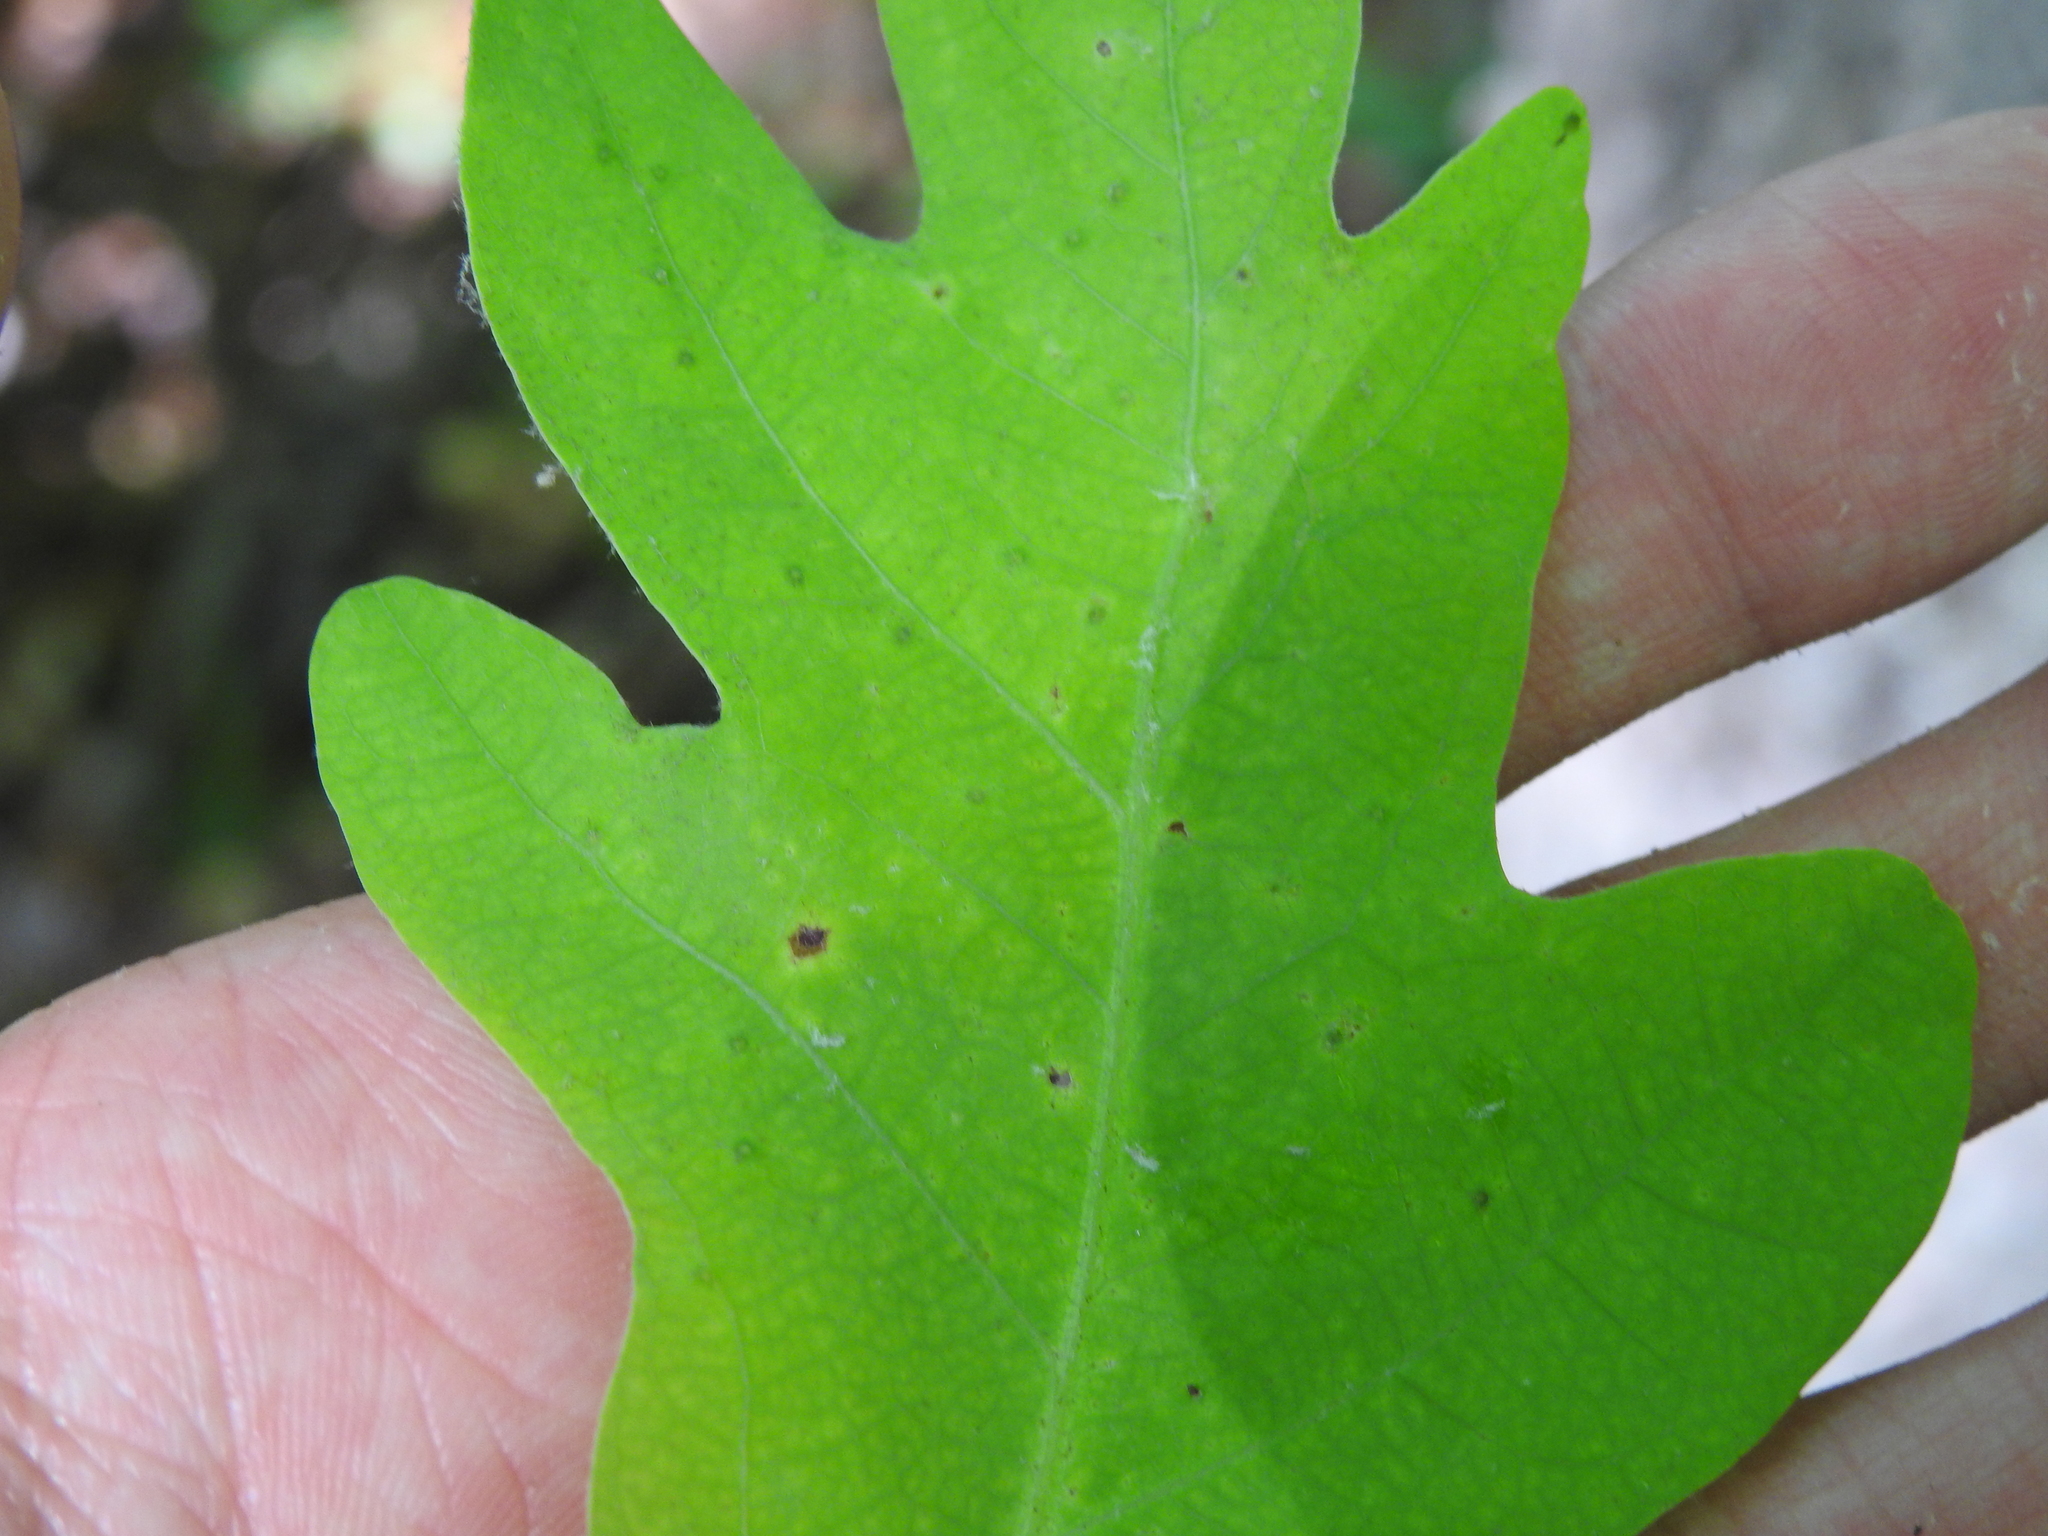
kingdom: Animalia
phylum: Arthropoda
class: Insecta
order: Hymenoptera
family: Cynipidae
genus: Neuroterus
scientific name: Neuroterus
